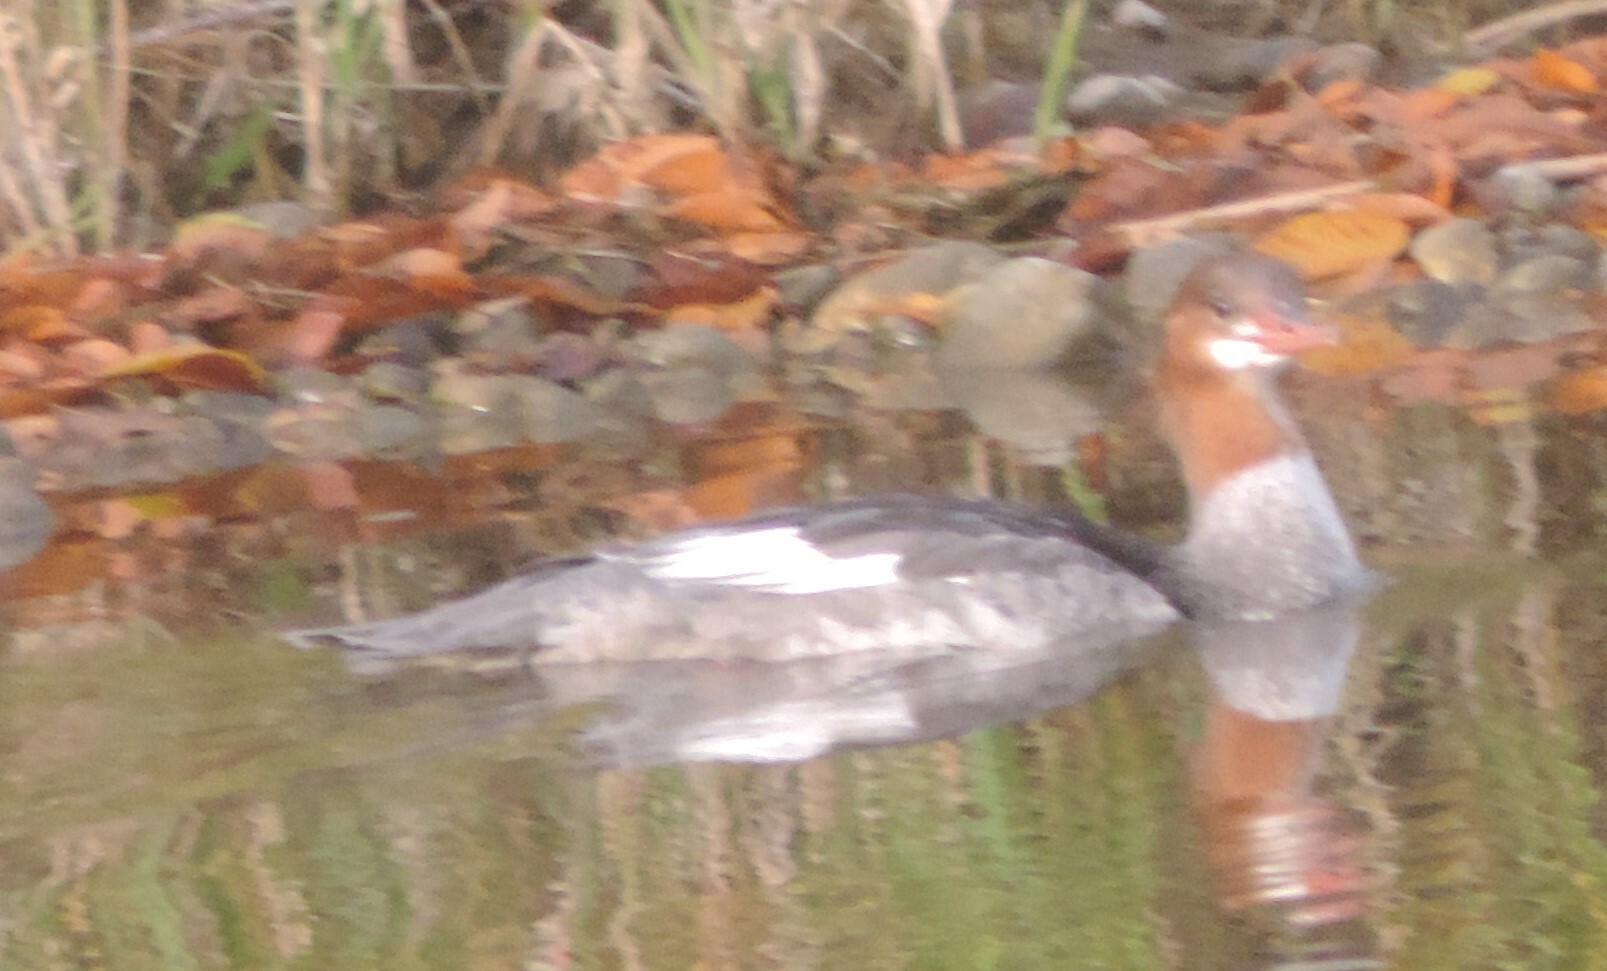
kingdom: Animalia
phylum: Chordata
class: Aves
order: Anseriformes
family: Anatidae
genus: Mergus
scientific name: Mergus merganser
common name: Common merganser
